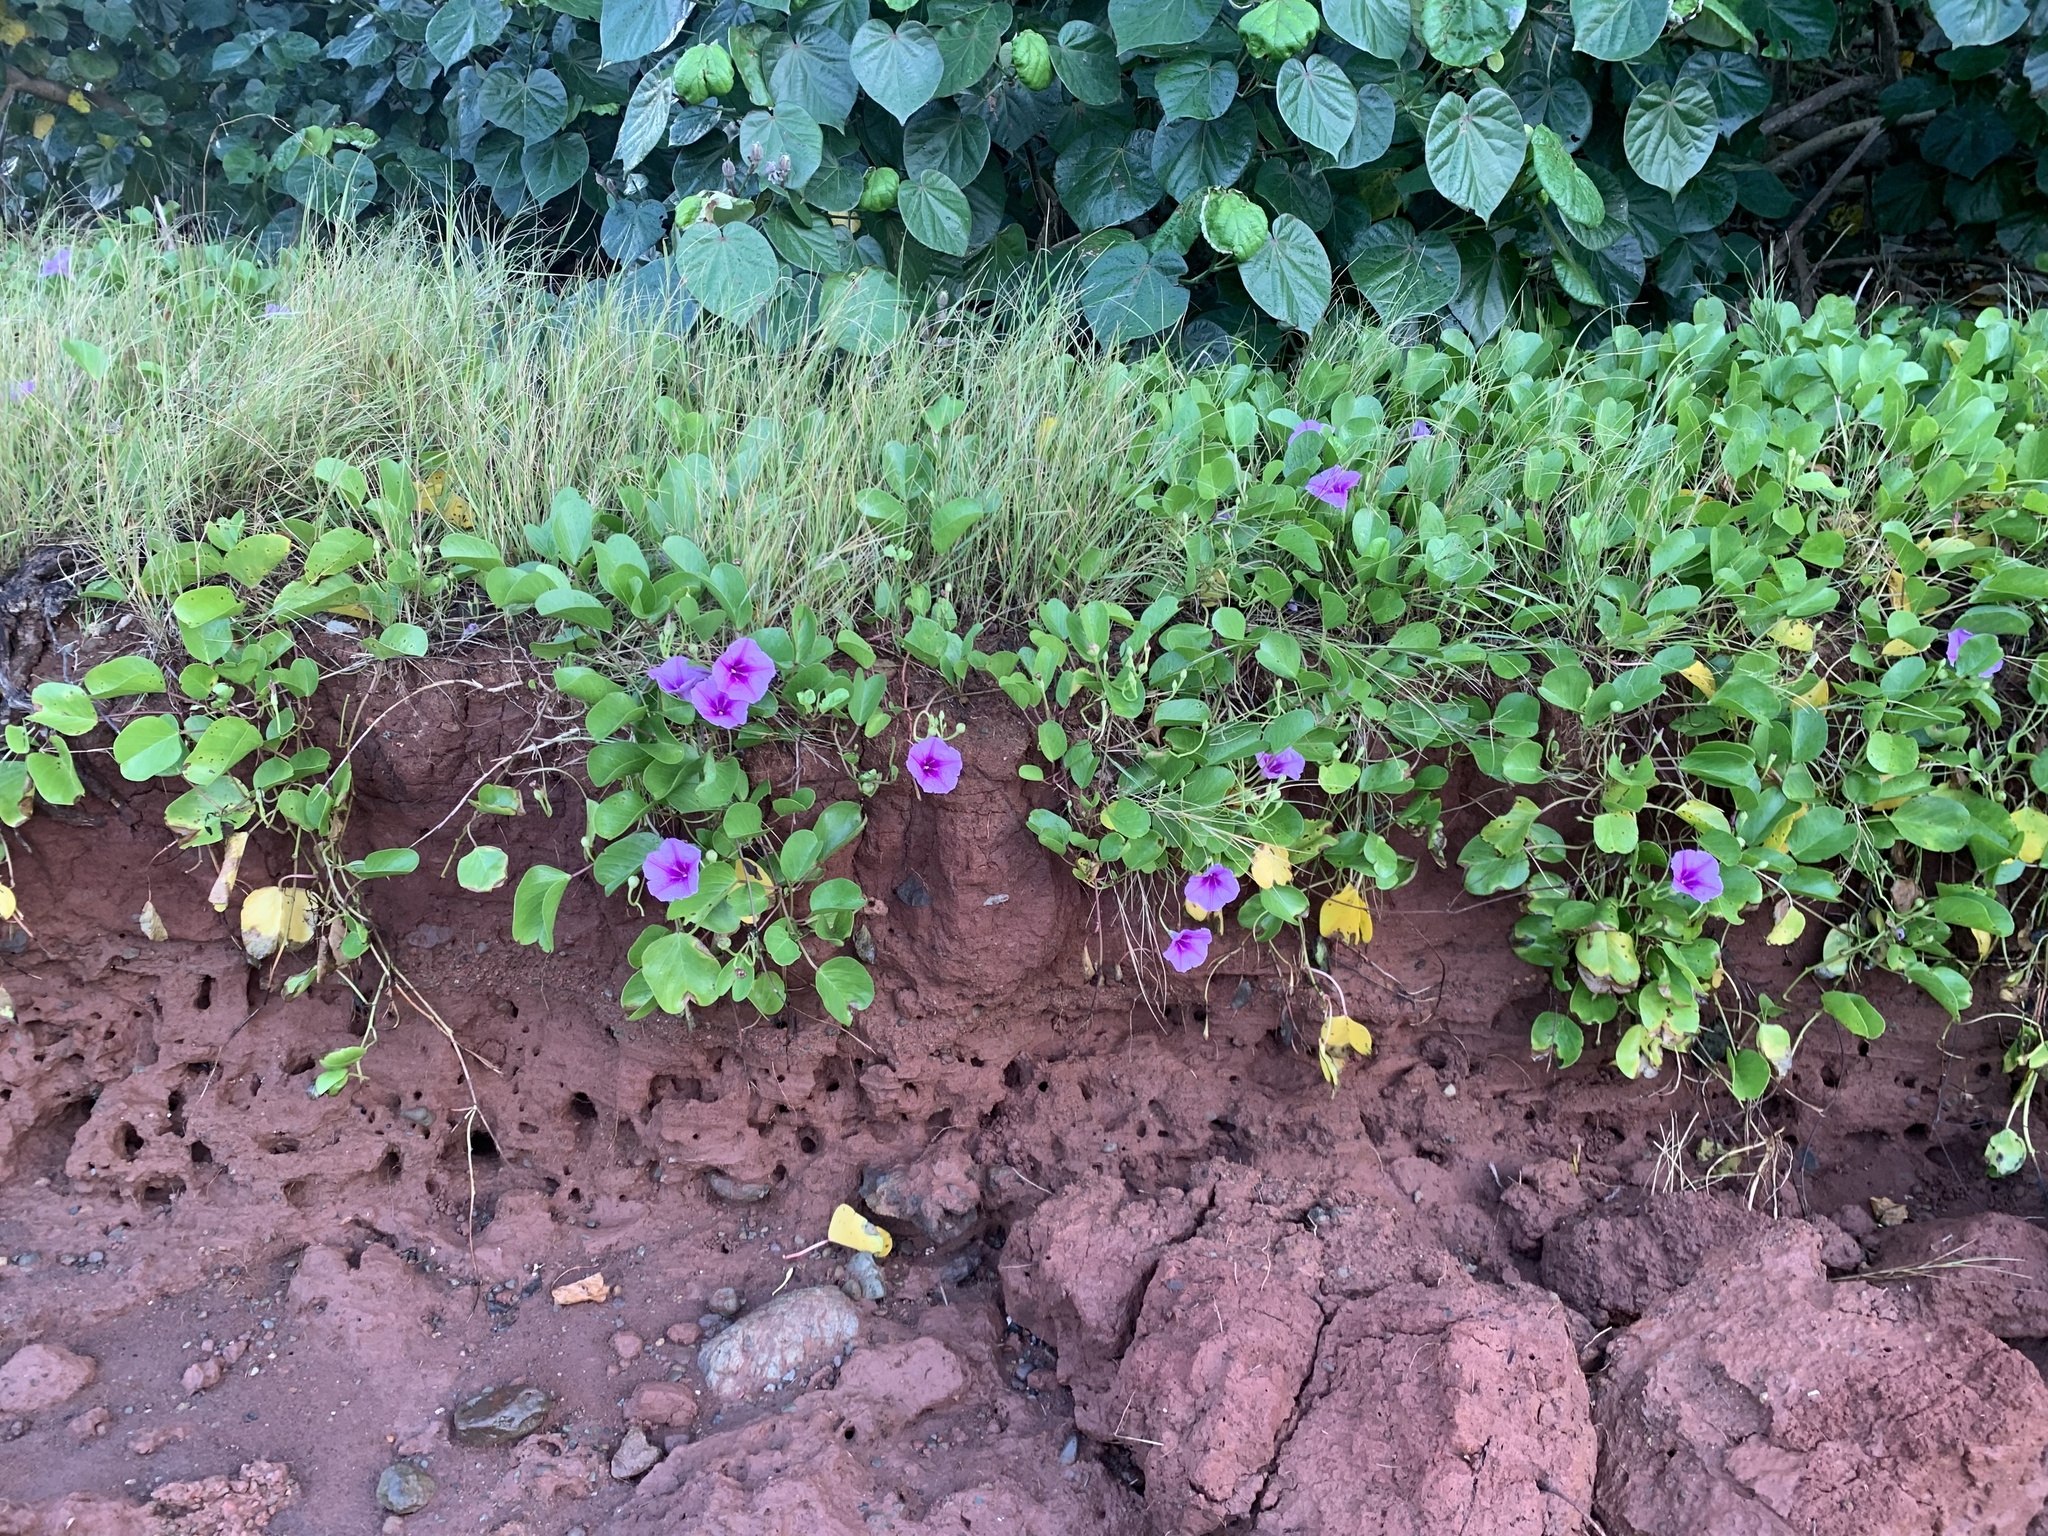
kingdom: Plantae
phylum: Tracheophyta
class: Magnoliopsida
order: Solanales
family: Convolvulaceae
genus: Ipomoea
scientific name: Ipomoea pes-caprae
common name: Beach morning glory
